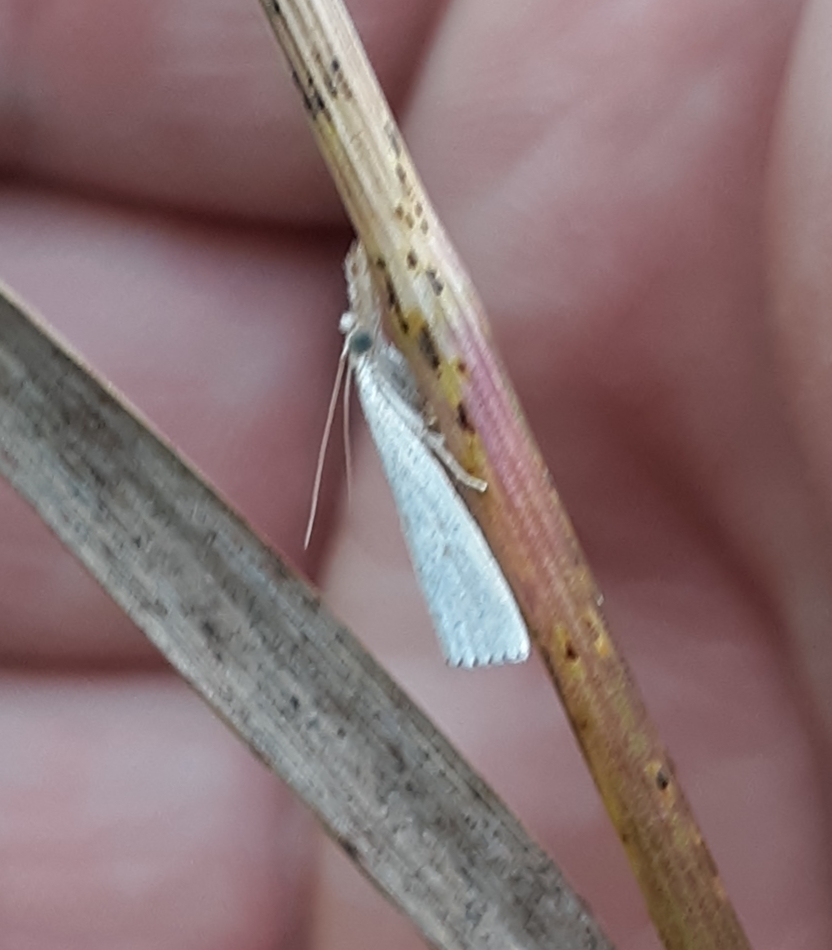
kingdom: Animalia
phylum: Arthropoda
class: Insecta
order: Lepidoptera
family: Crambidae
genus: Crambus
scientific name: Crambus perlellus
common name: Yellow satin veneer
